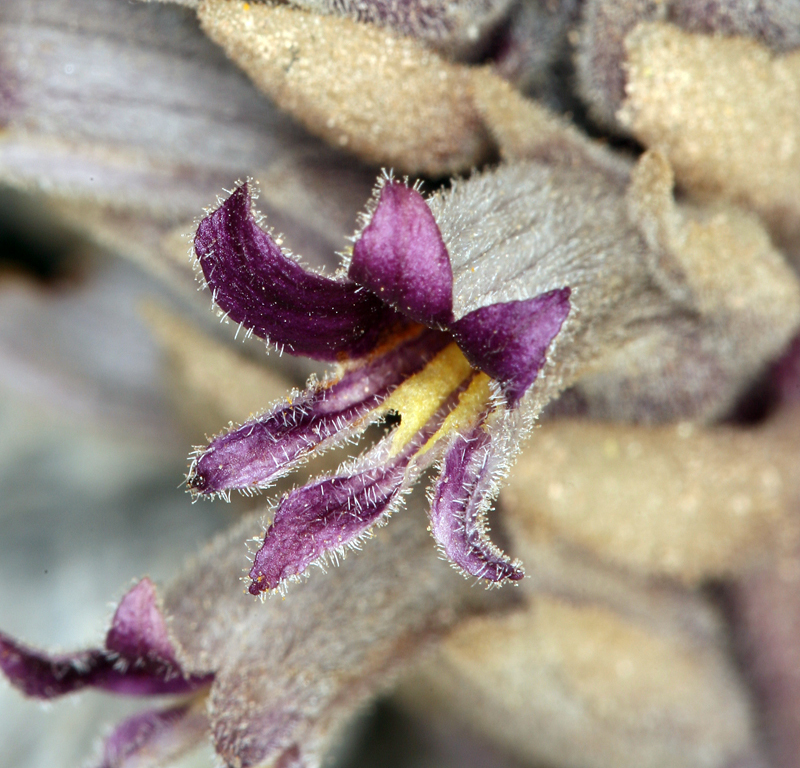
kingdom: Plantae
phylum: Tracheophyta
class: Magnoliopsida
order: Lamiales
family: Orobanchaceae
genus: Aphyllon
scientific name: Aphyllon cooperi
